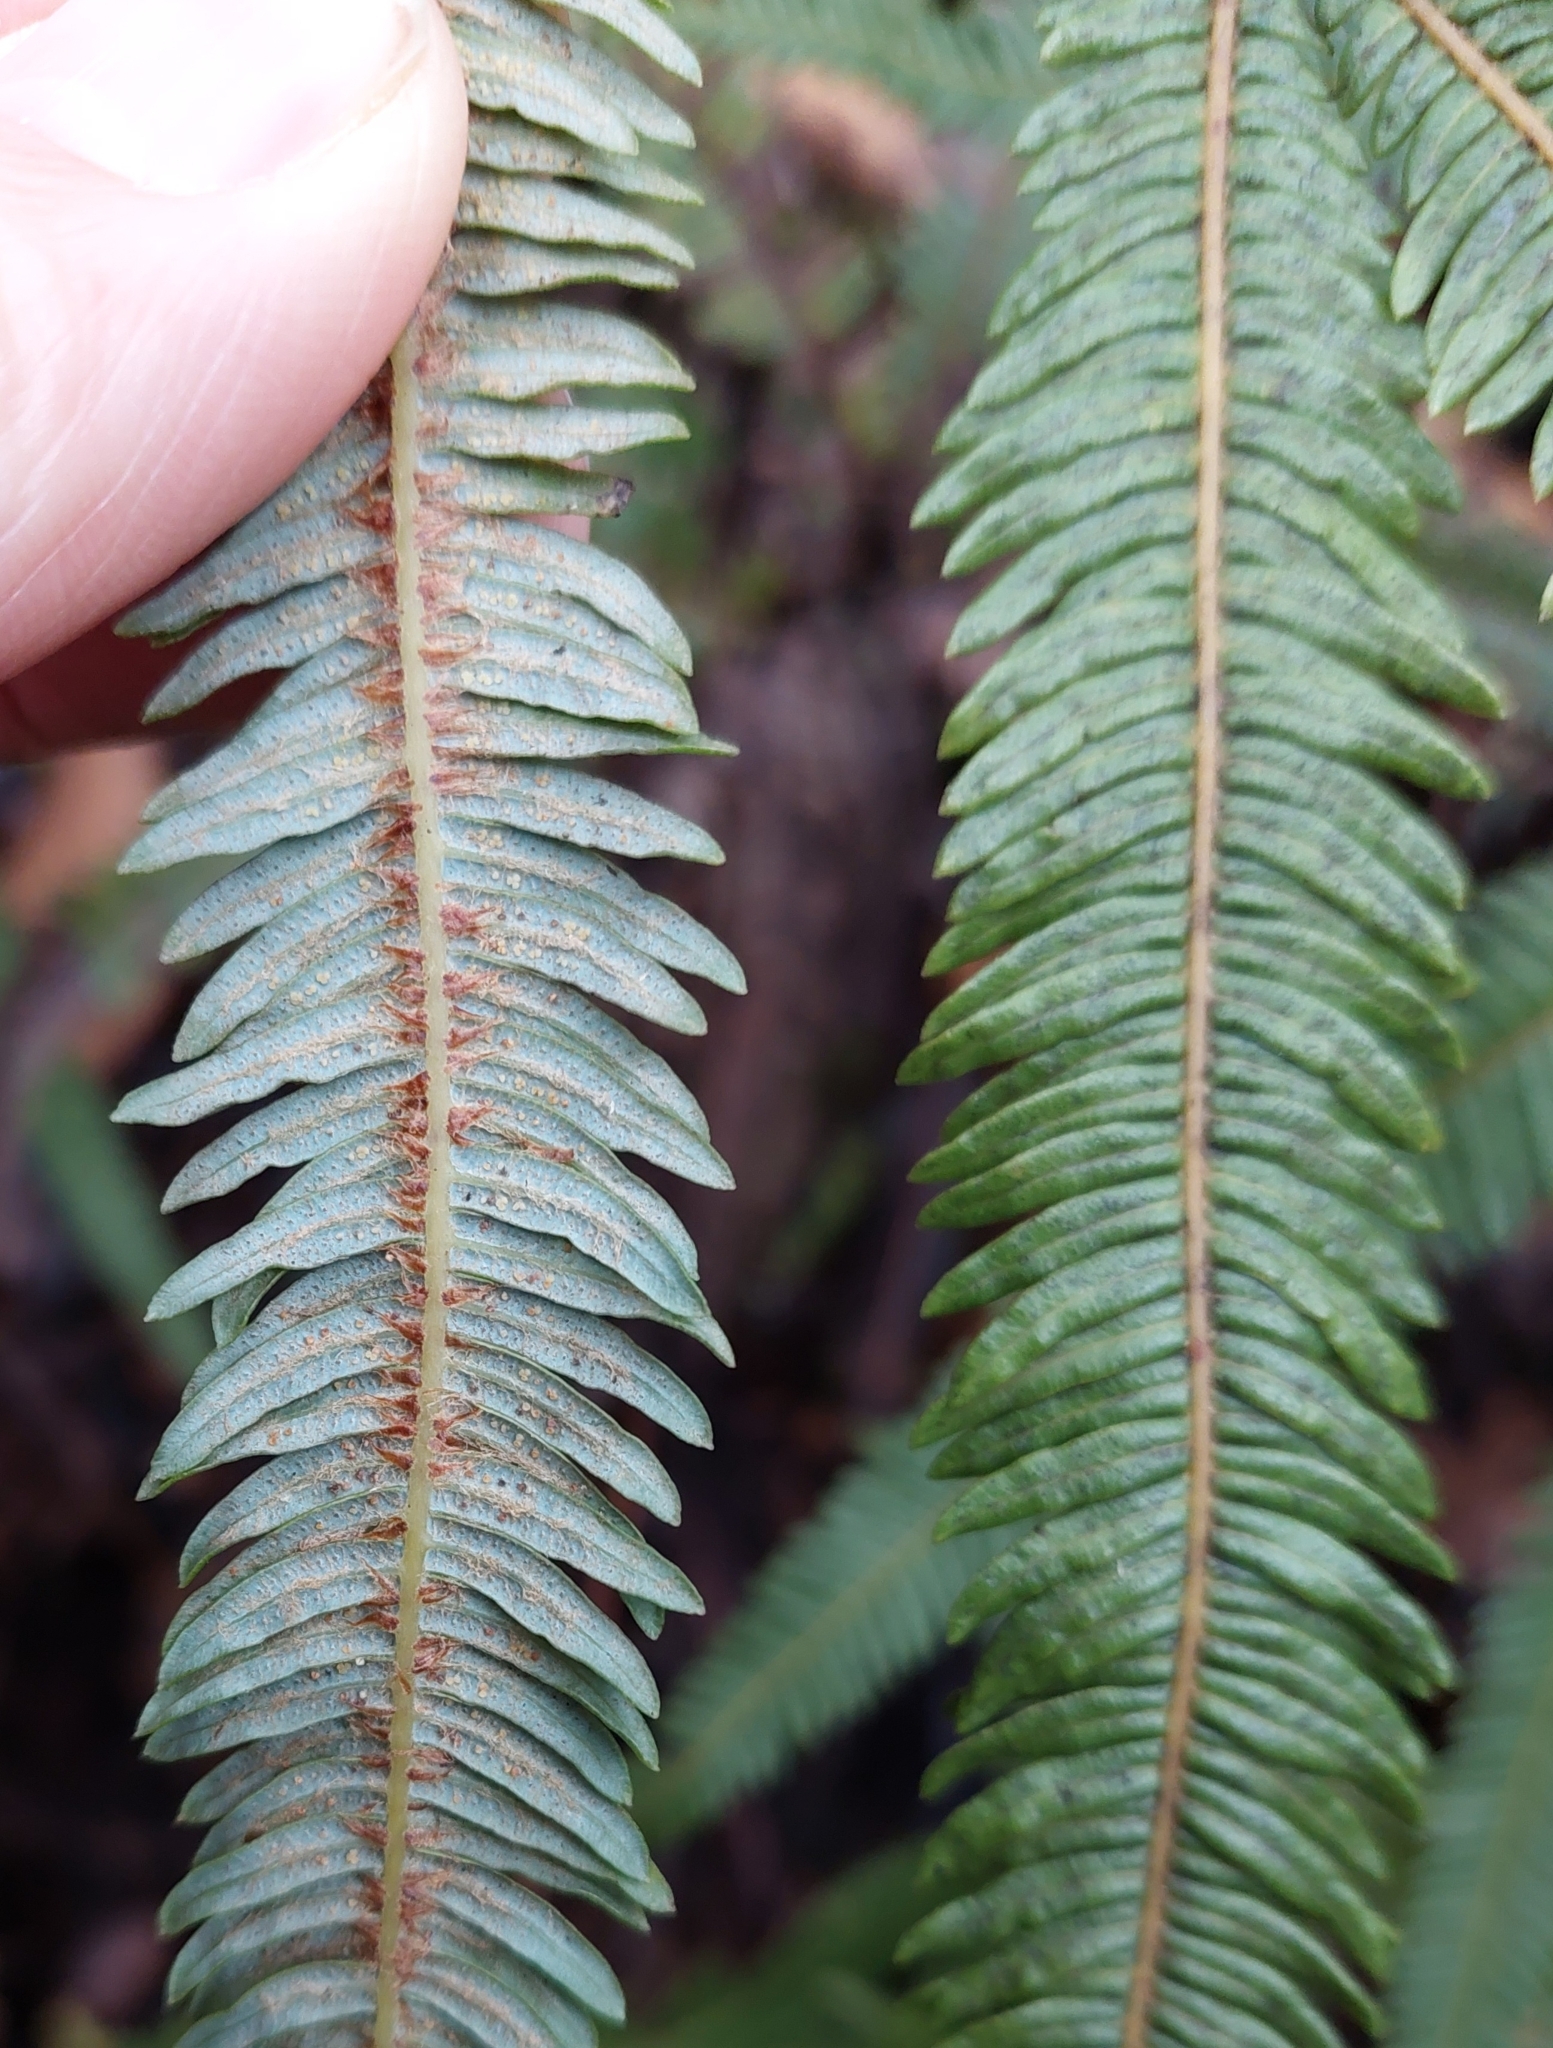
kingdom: Plantae
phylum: Tracheophyta
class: Polypodiopsida
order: Gleicheniales
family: Gleicheniaceae
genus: Sticherus
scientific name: Sticherus cunninghamii
